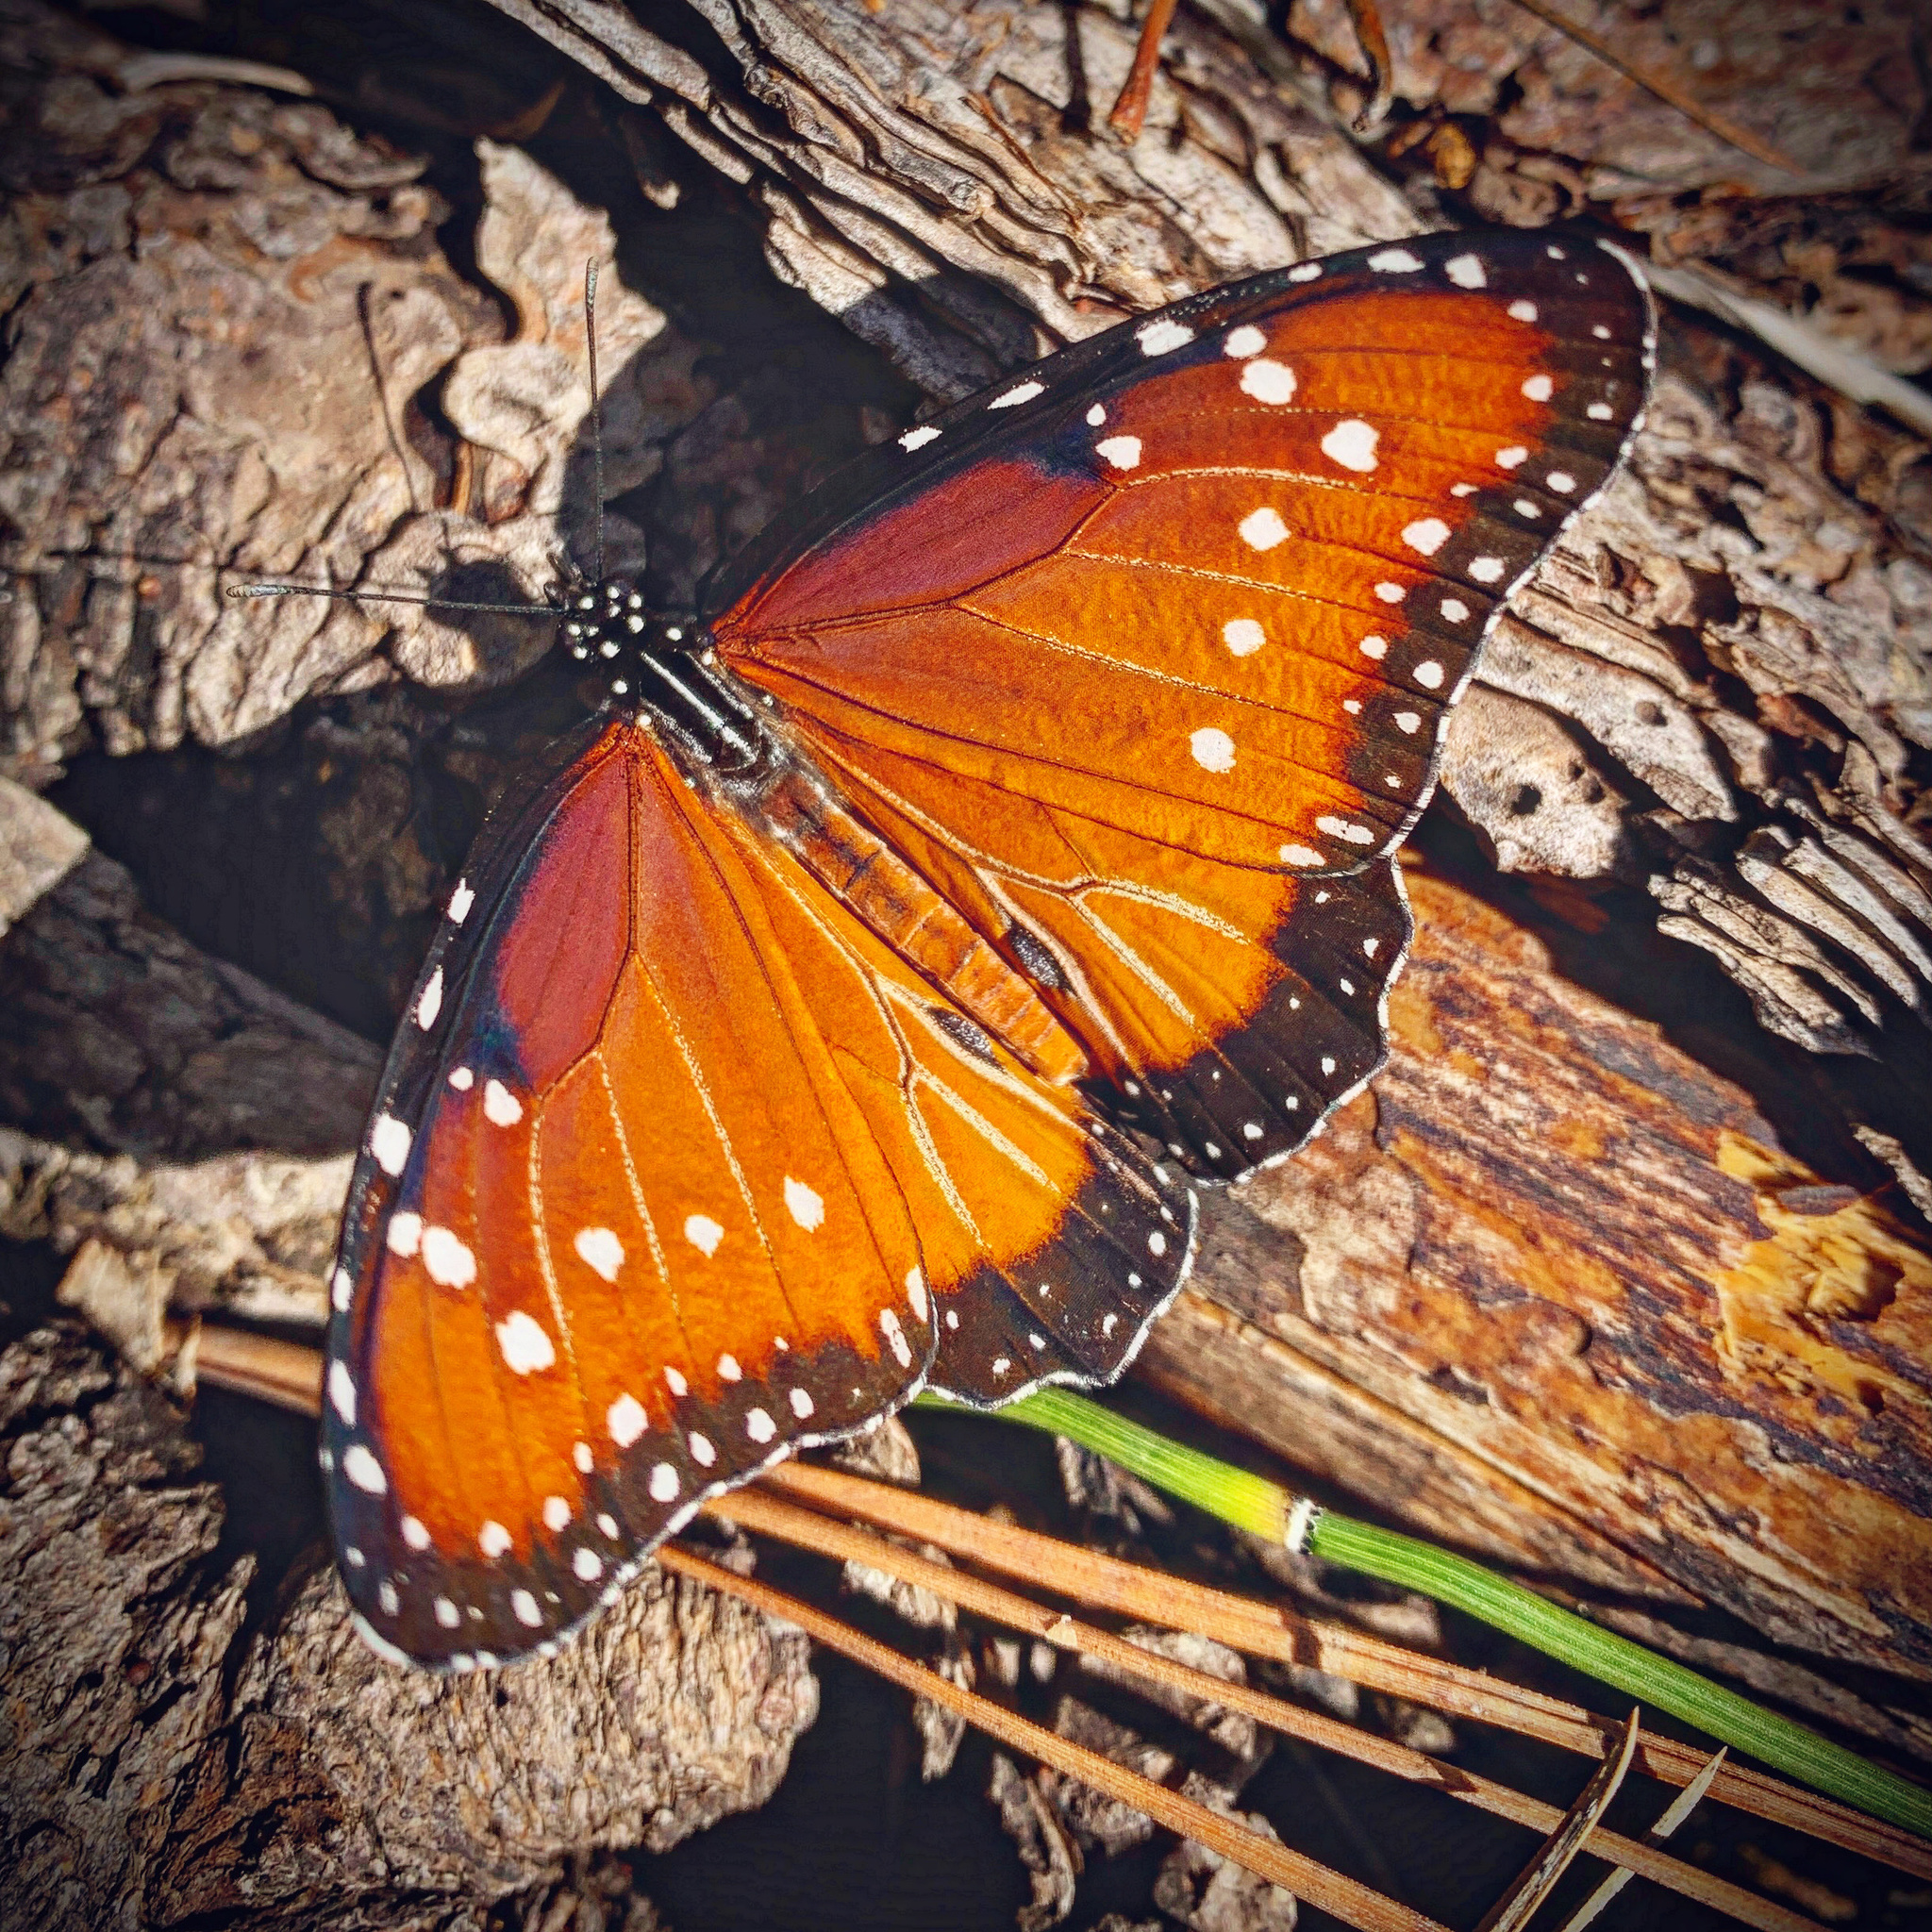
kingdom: Animalia
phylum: Arthropoda
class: Insecta
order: Lepidoptera
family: Nymphalidae
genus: Danaus
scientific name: Danaus gilippus
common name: Queen
